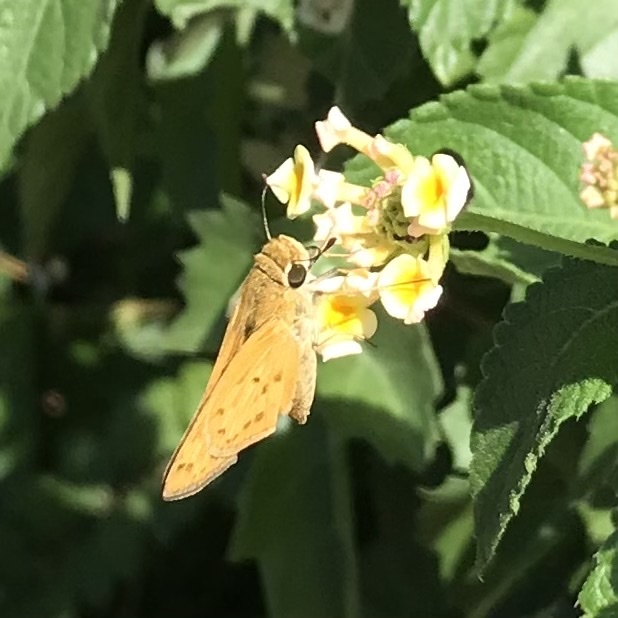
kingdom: Animalia
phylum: Arthropoda
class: Insecta
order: Lepidoptera
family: Hesperiidae
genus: Hylephila
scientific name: Hylephila phyleus
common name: Fiery skipper
